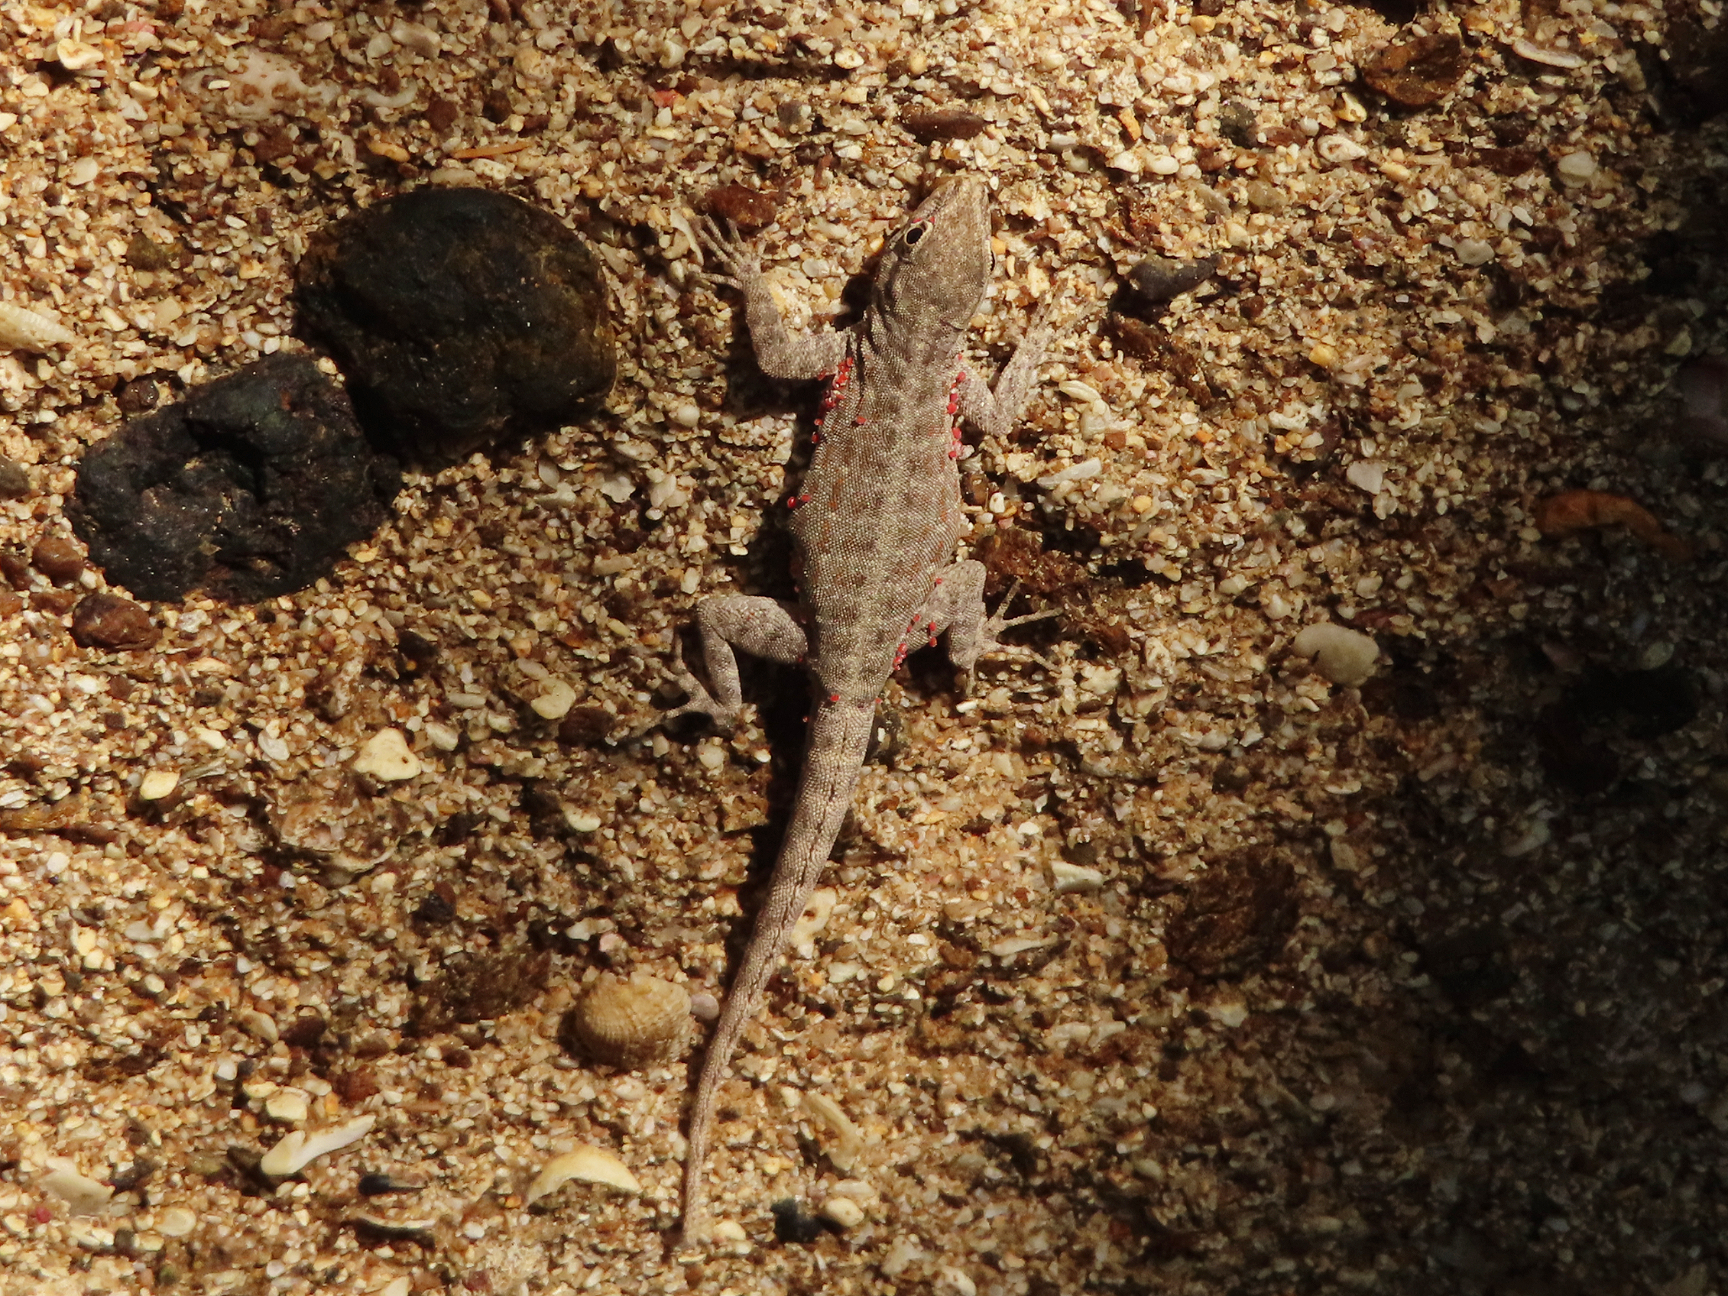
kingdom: Animalia
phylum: Chordata
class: Squamata
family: Sphaerodactylidae
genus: Pristurus
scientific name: Pristurus rupestris
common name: Blanford’s semaphore gecko
